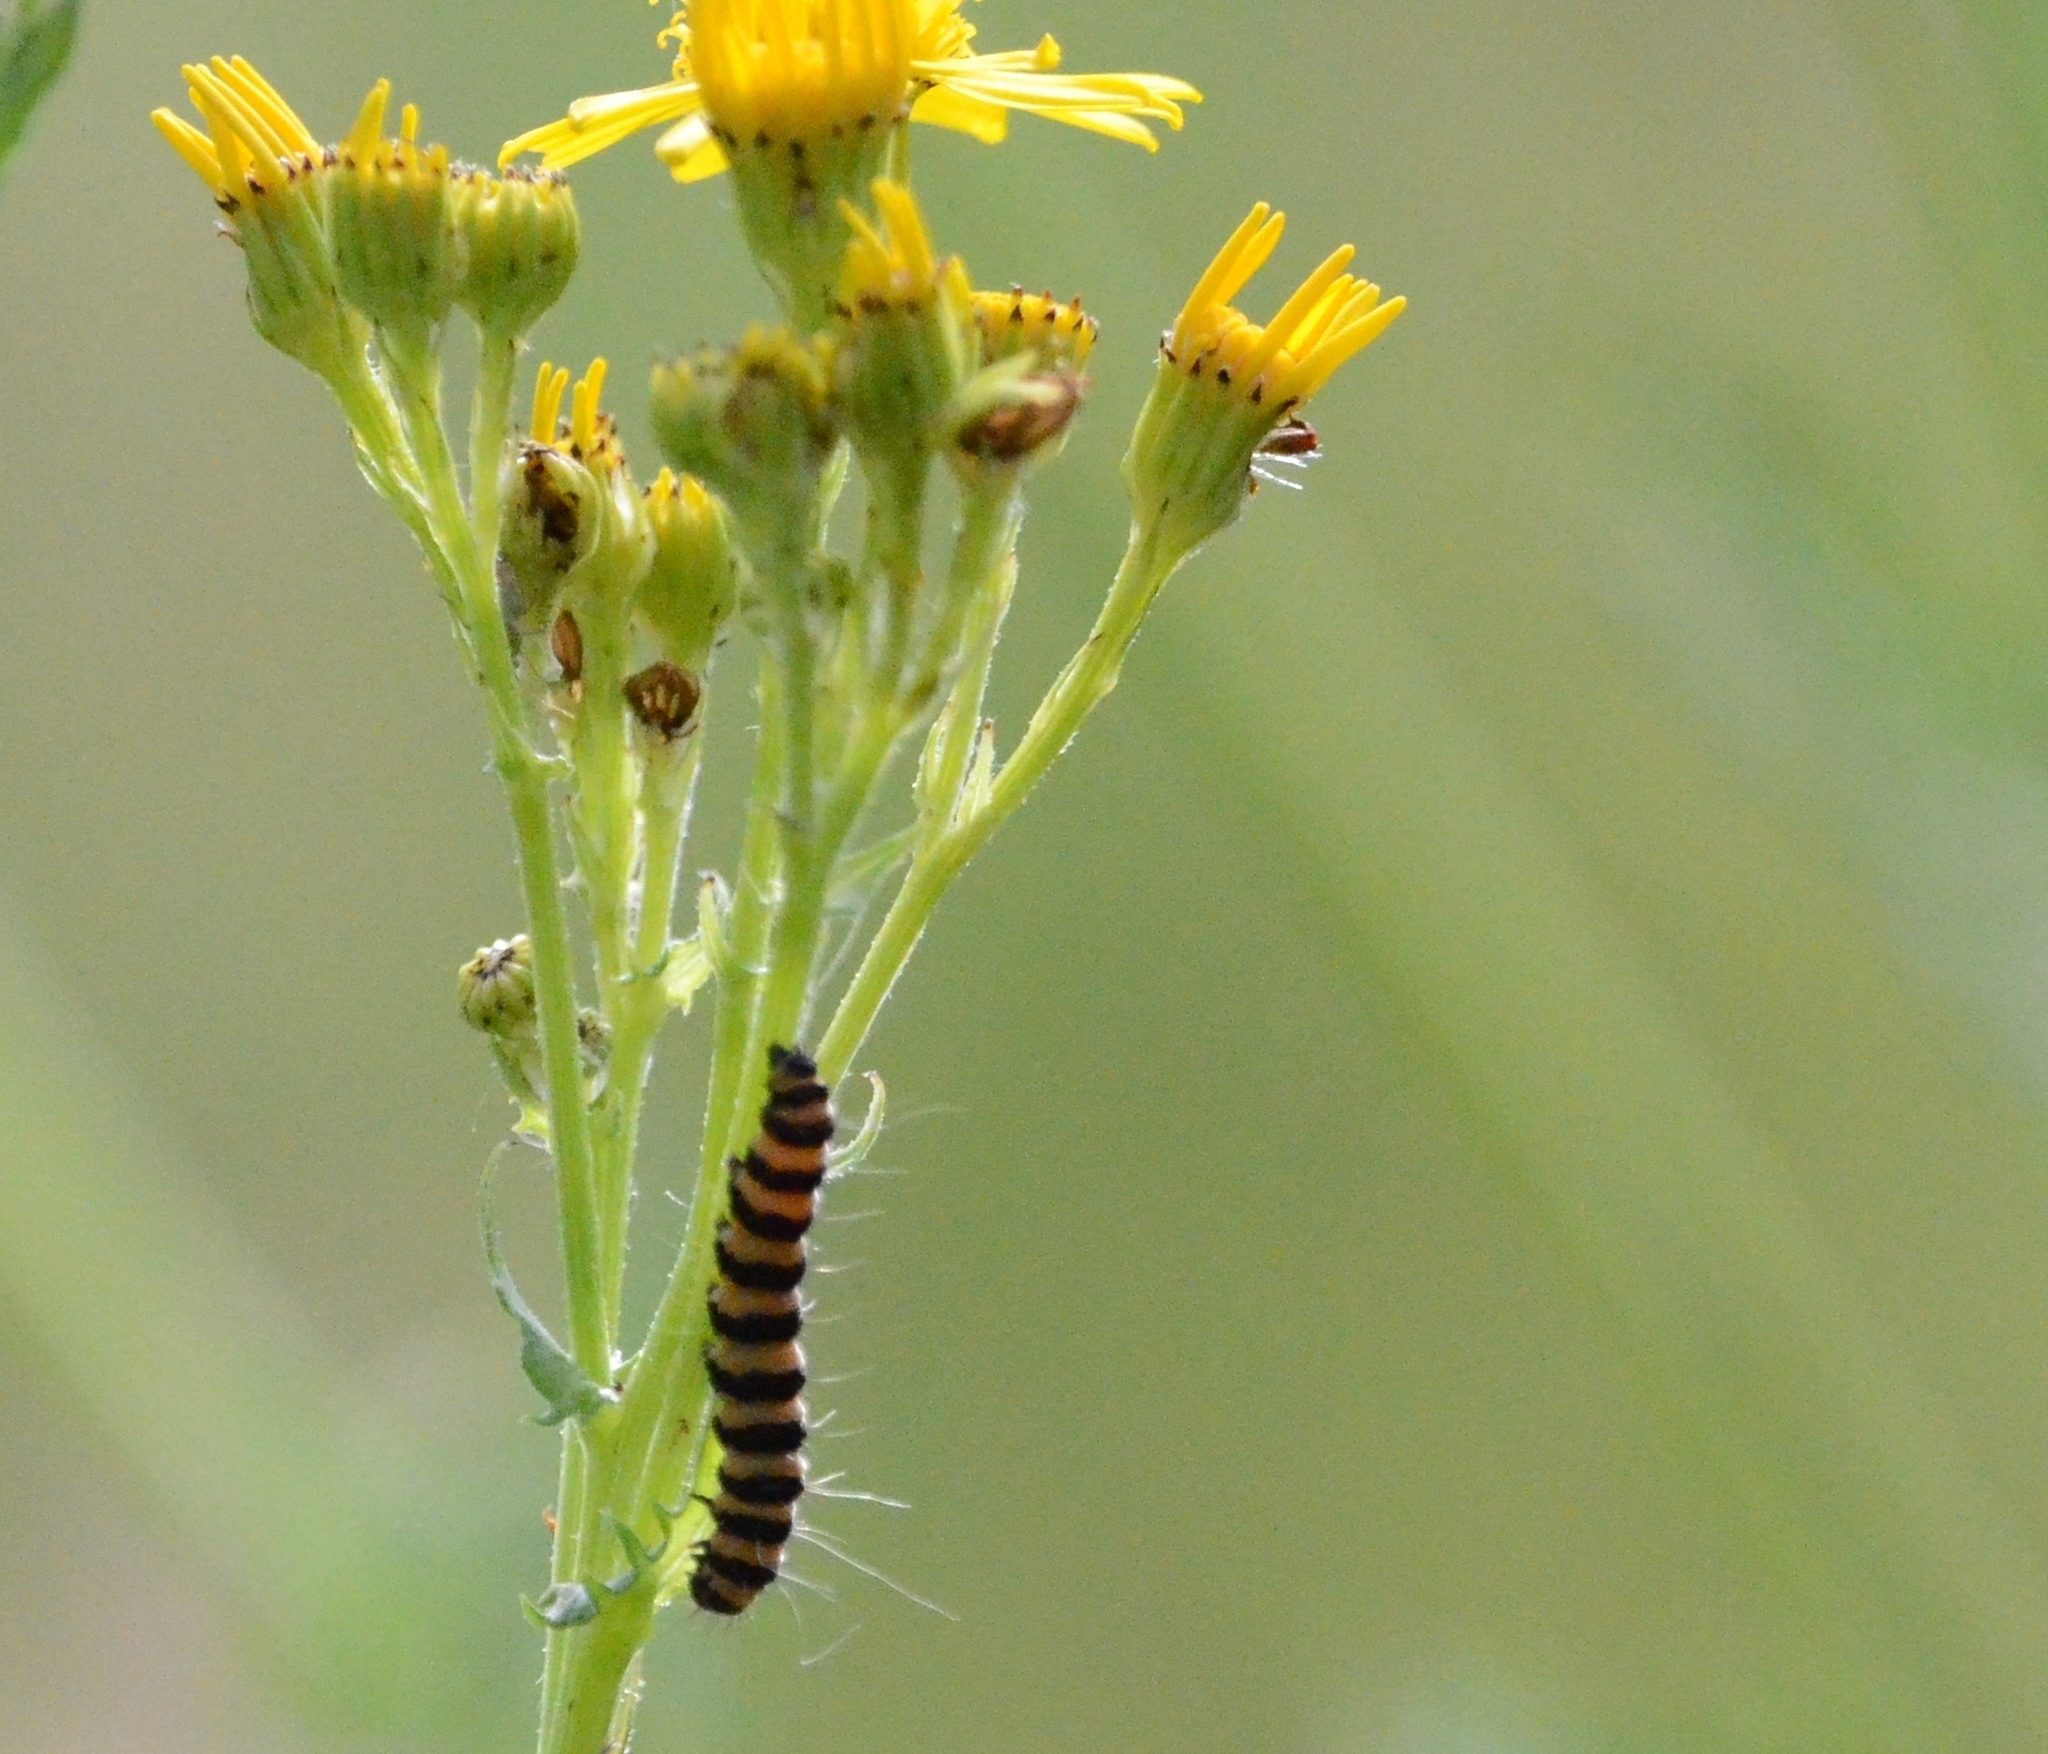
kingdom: Animalia
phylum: Arthropoda
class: Insecta
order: Lepidoptera
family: Erebidae
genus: Tyria
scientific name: Tyria jacobaeae
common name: Cinnabar
